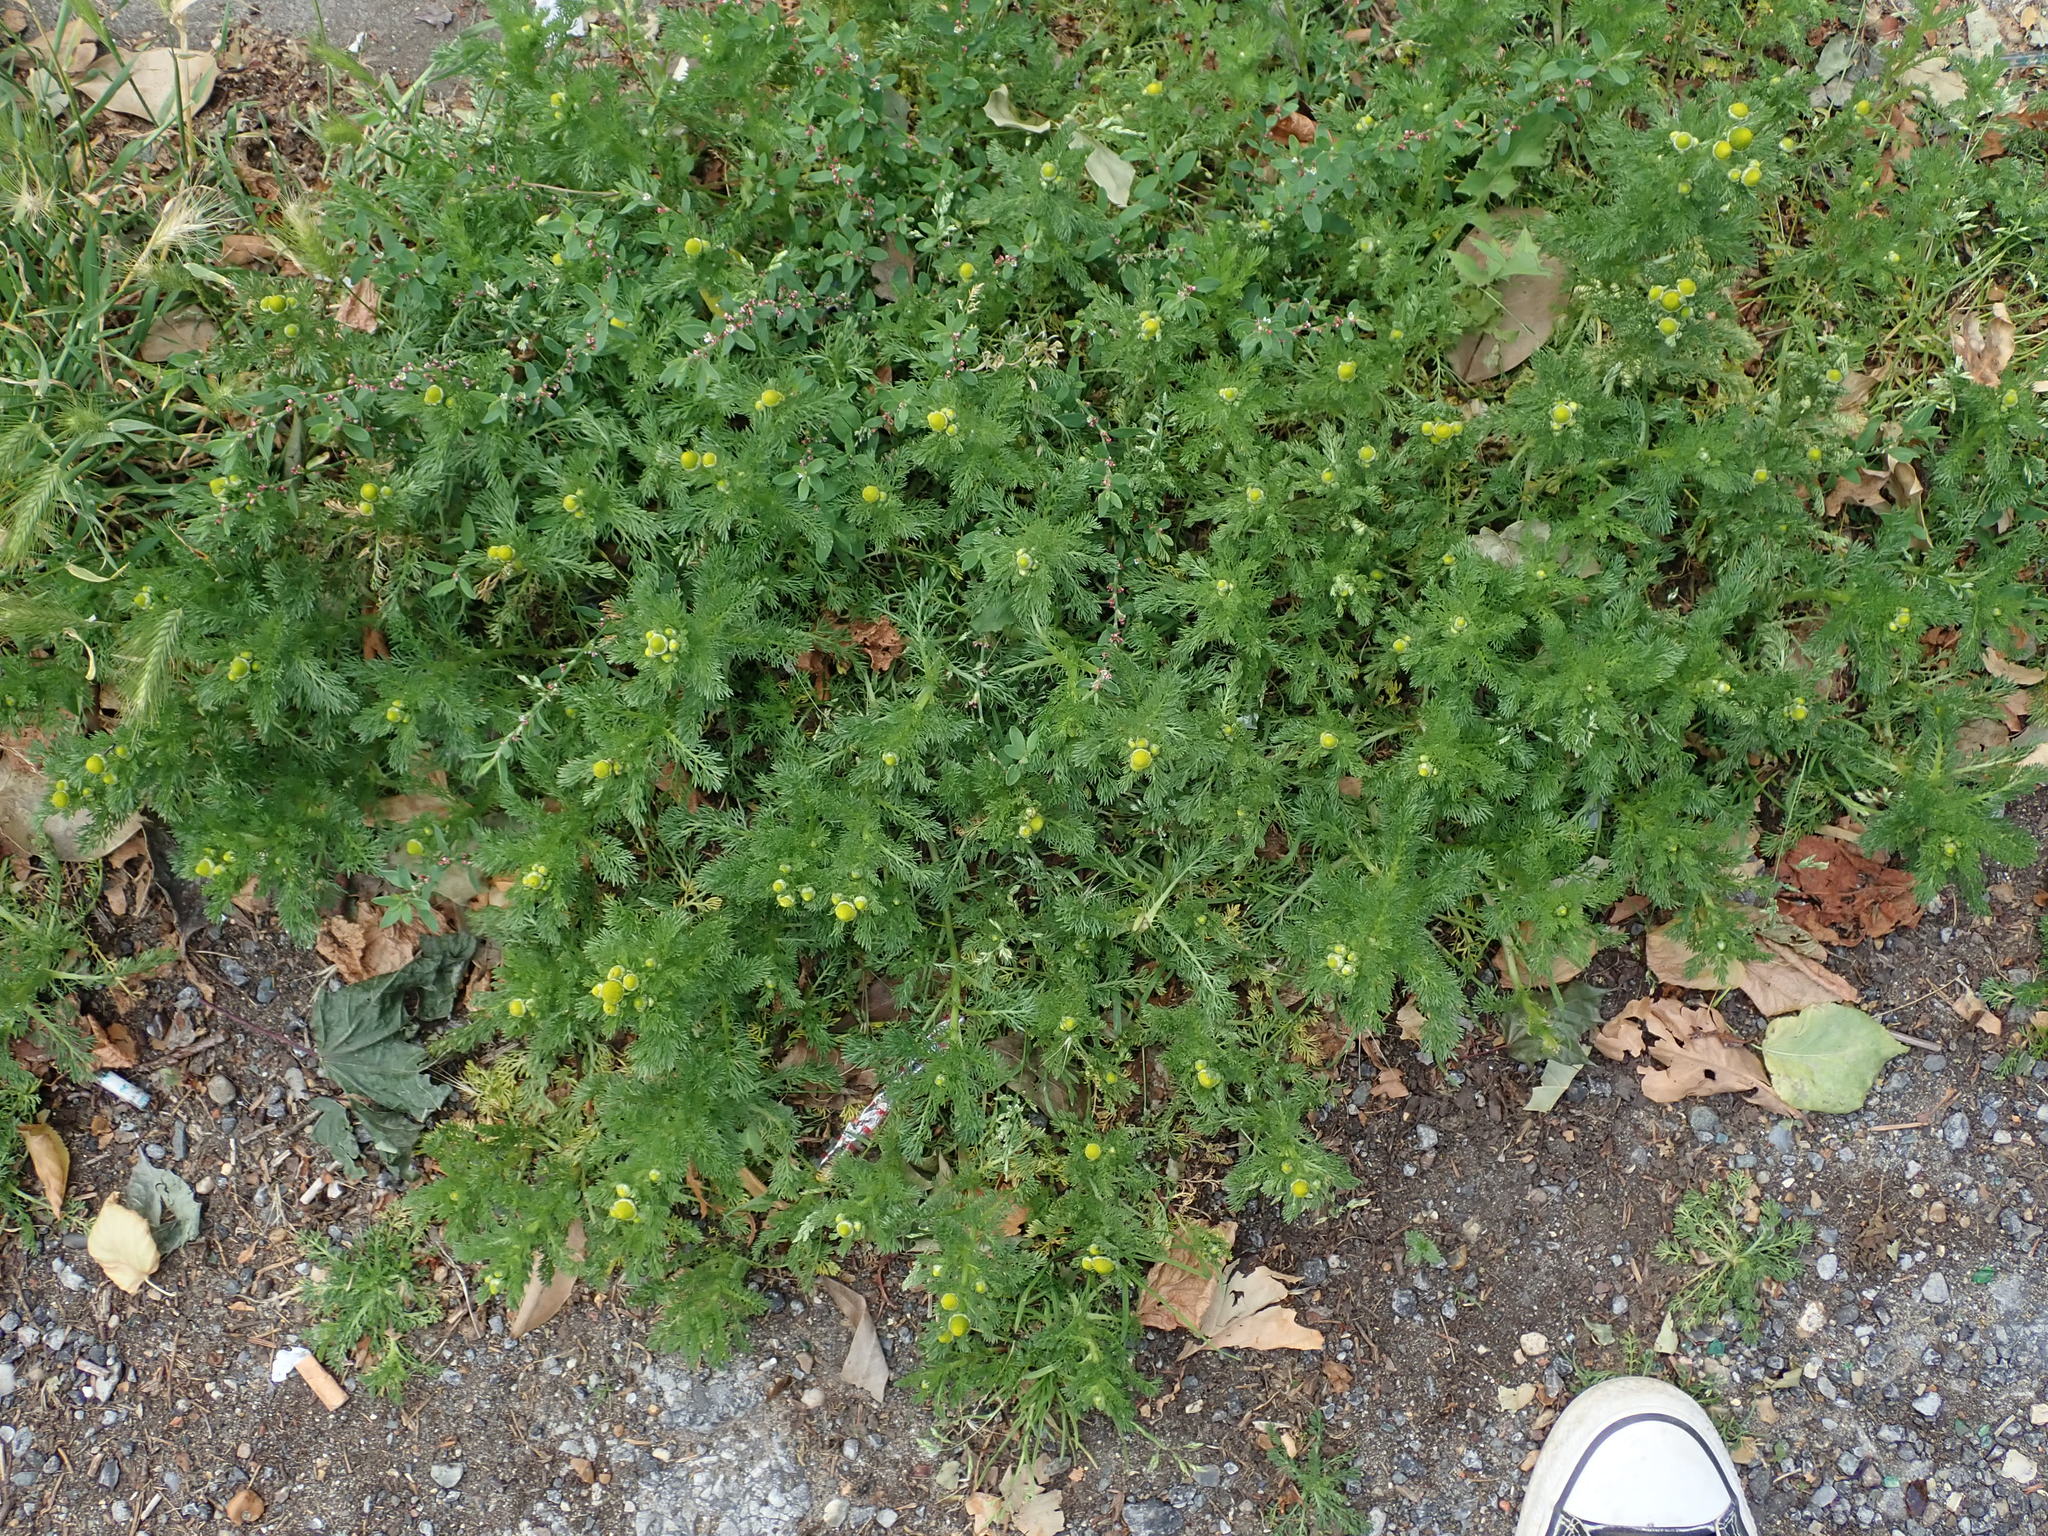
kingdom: Plantae
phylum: Tracheophyta
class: Magnoliopsida
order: Asterales
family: Asteraceae
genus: Matricaria
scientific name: Matricaria discoidea
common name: Disc mayweed
